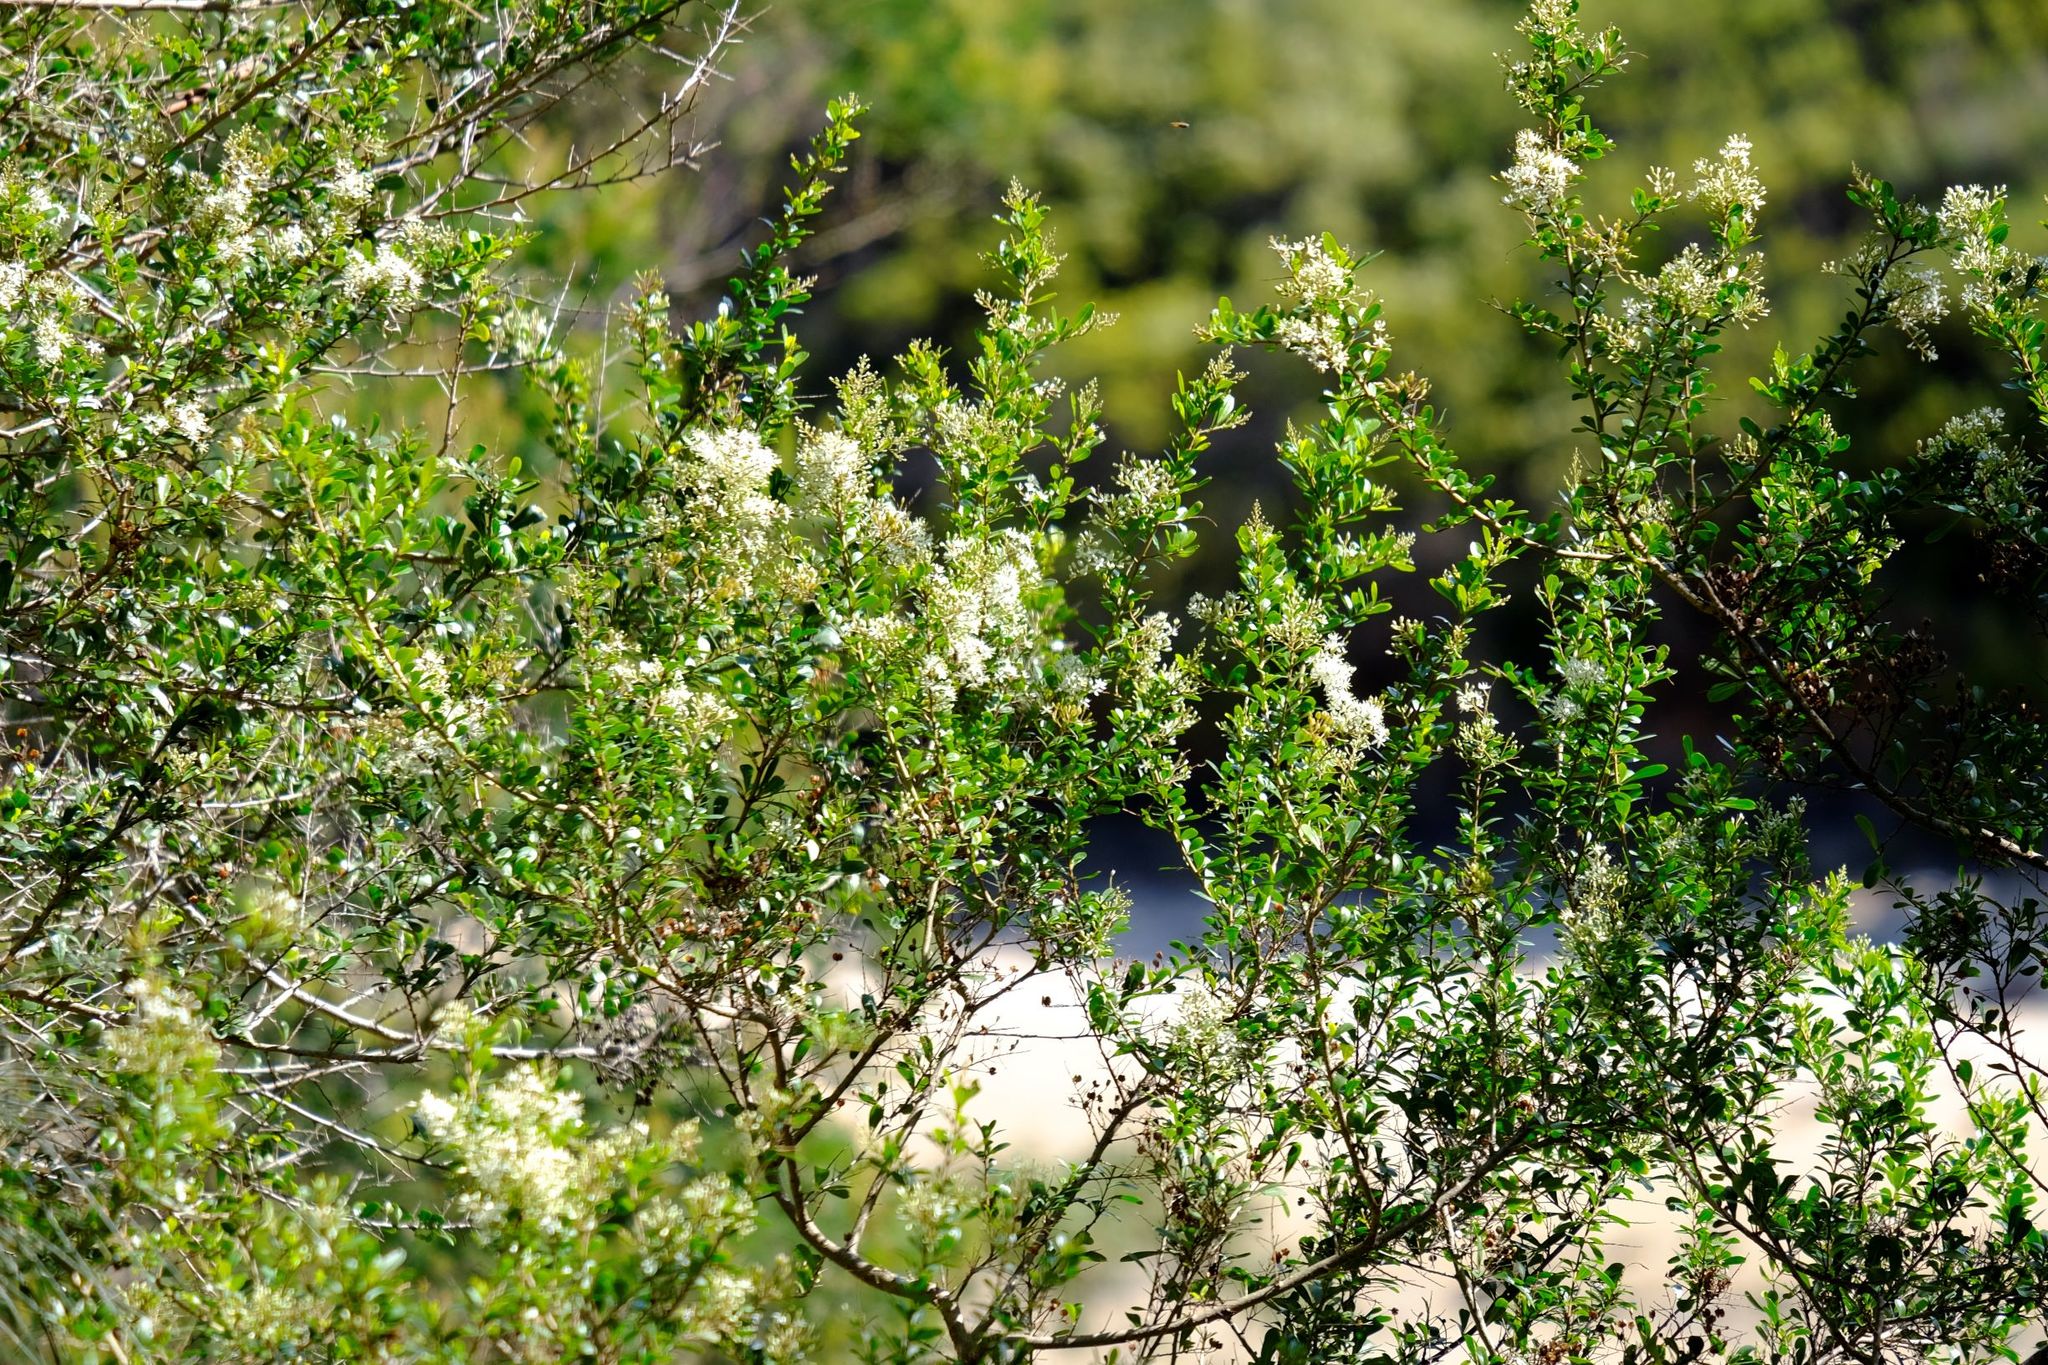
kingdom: Plantae
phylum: Tracheophyta
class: Magnoliopsida
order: Apiales
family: Pittosporaceae
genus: Bursaria
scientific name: Bursaria spinosa
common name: Australian blackthorn
